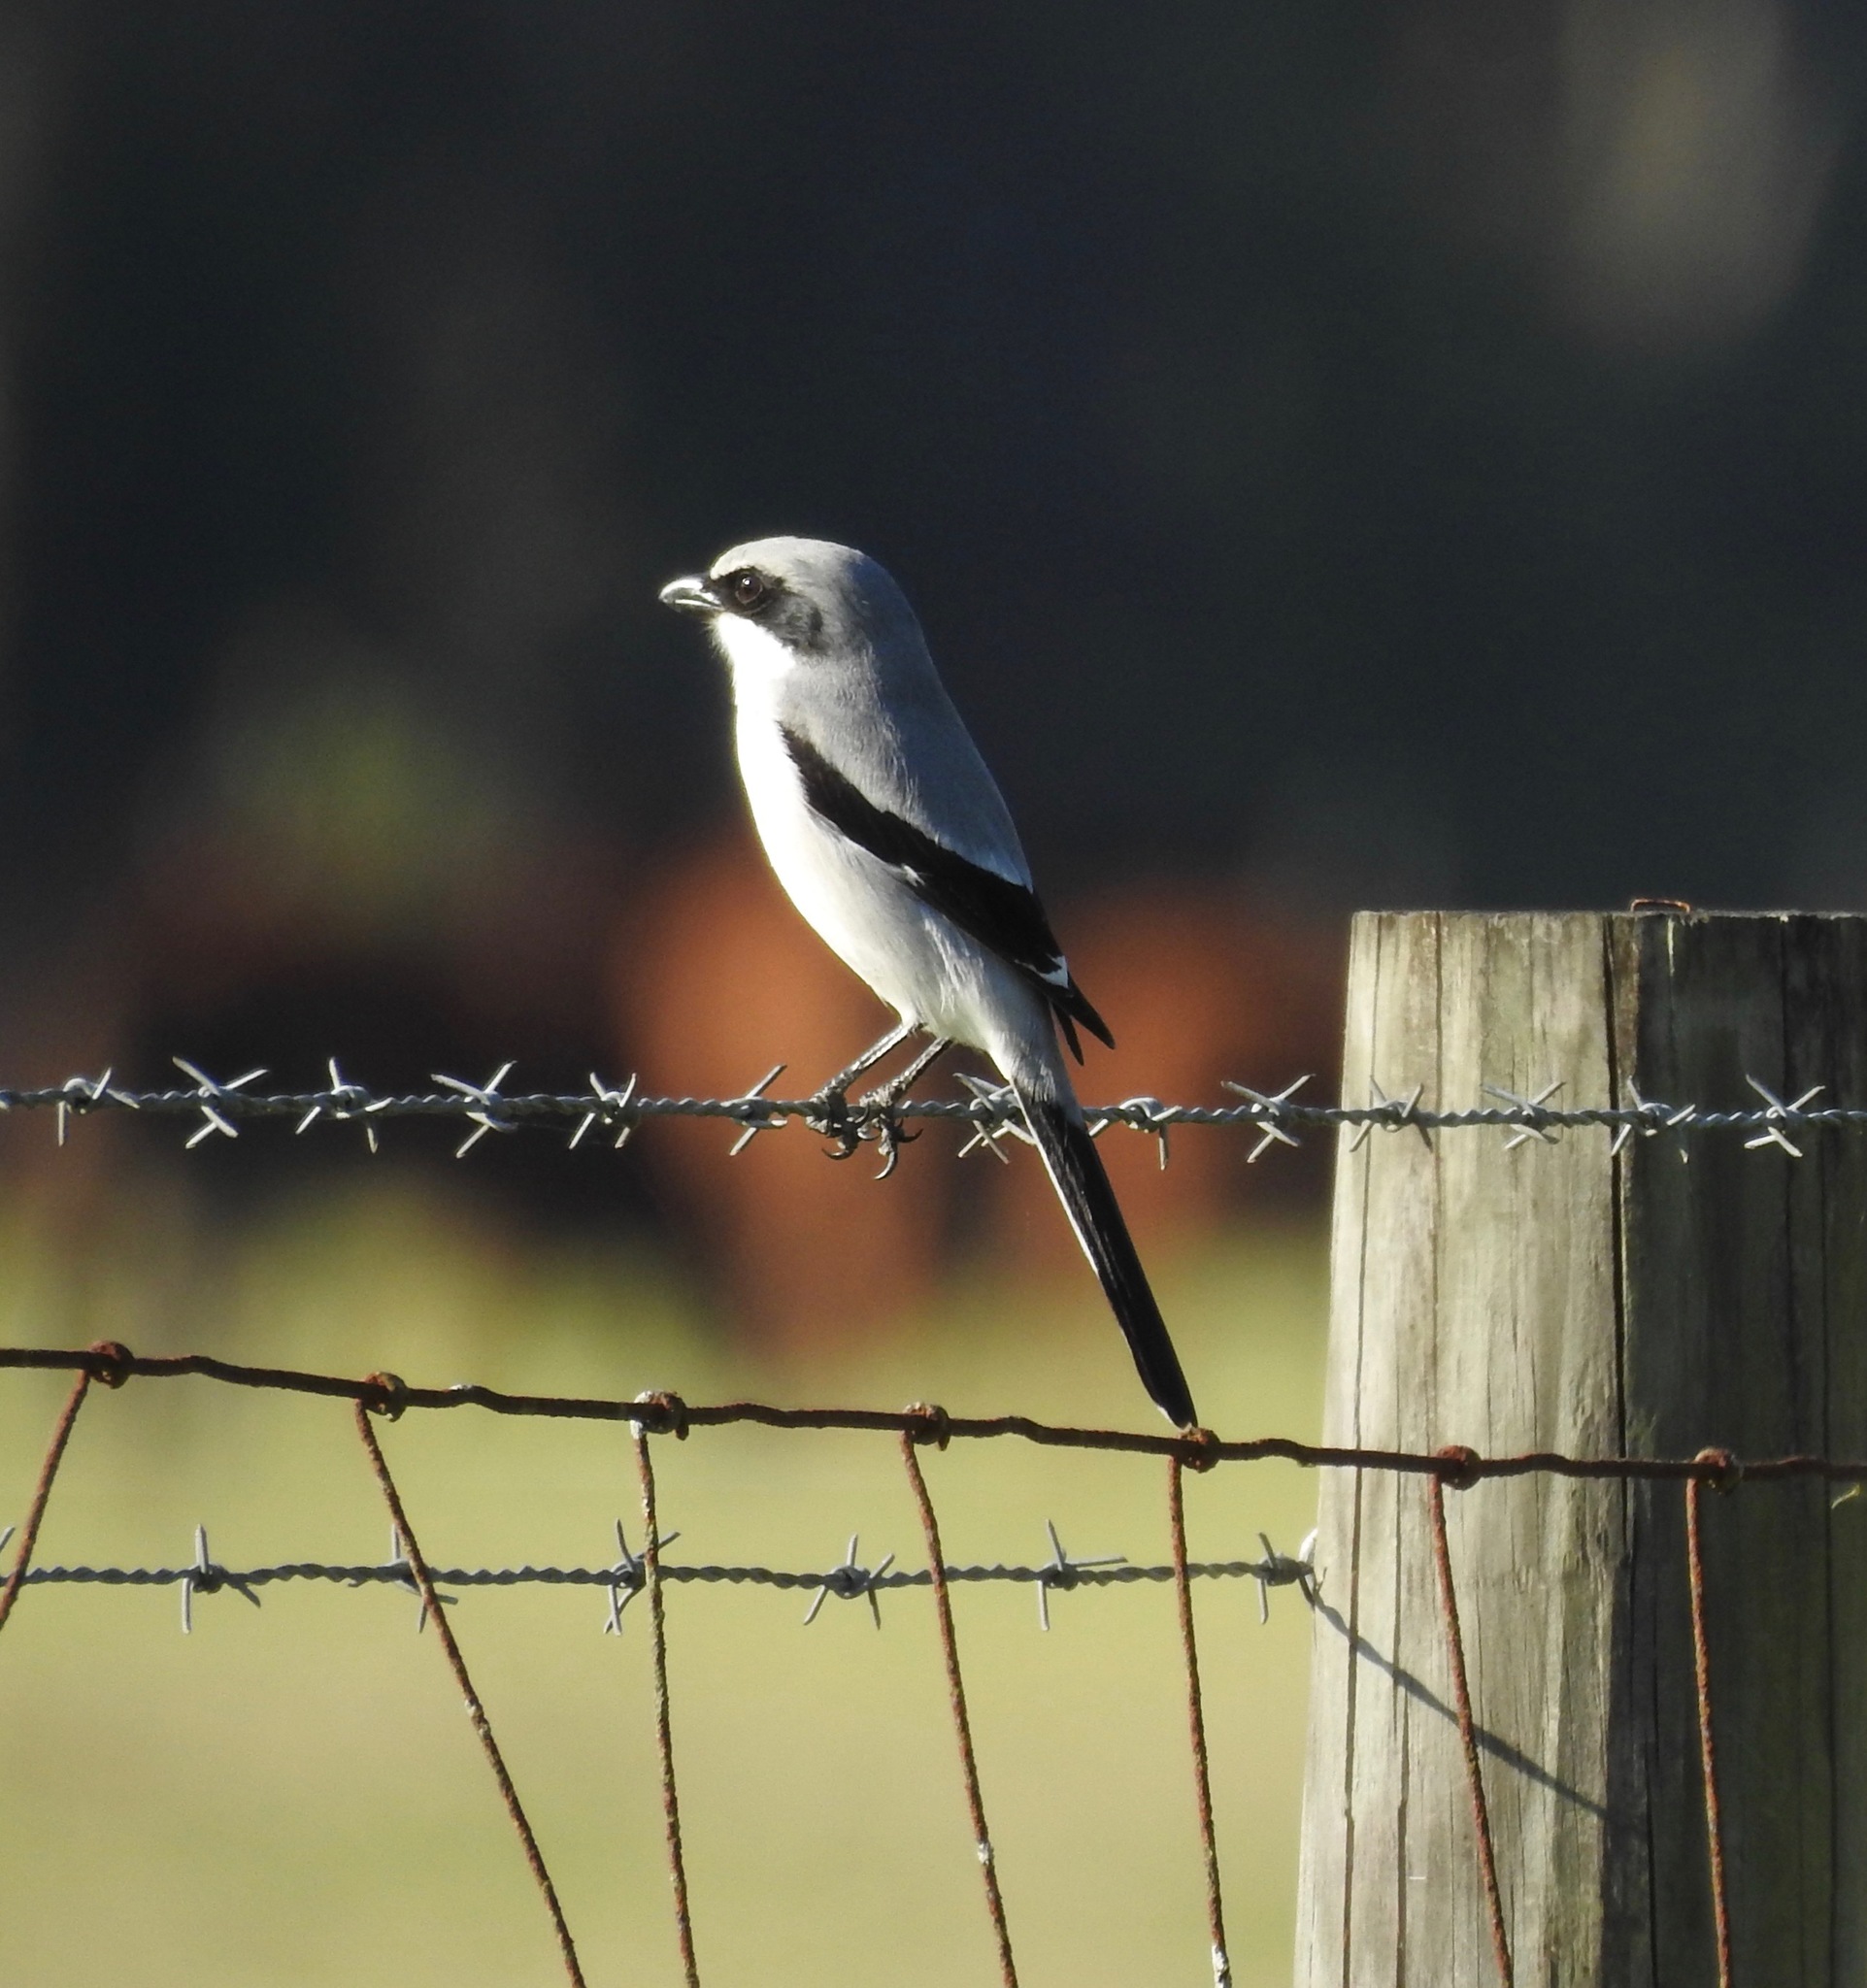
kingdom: Animalia
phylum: Chordata
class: Aves
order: Passeriformes
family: Laniidae
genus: Lanius
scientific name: Lanius ludovicianus
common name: Loggerhead shrike
